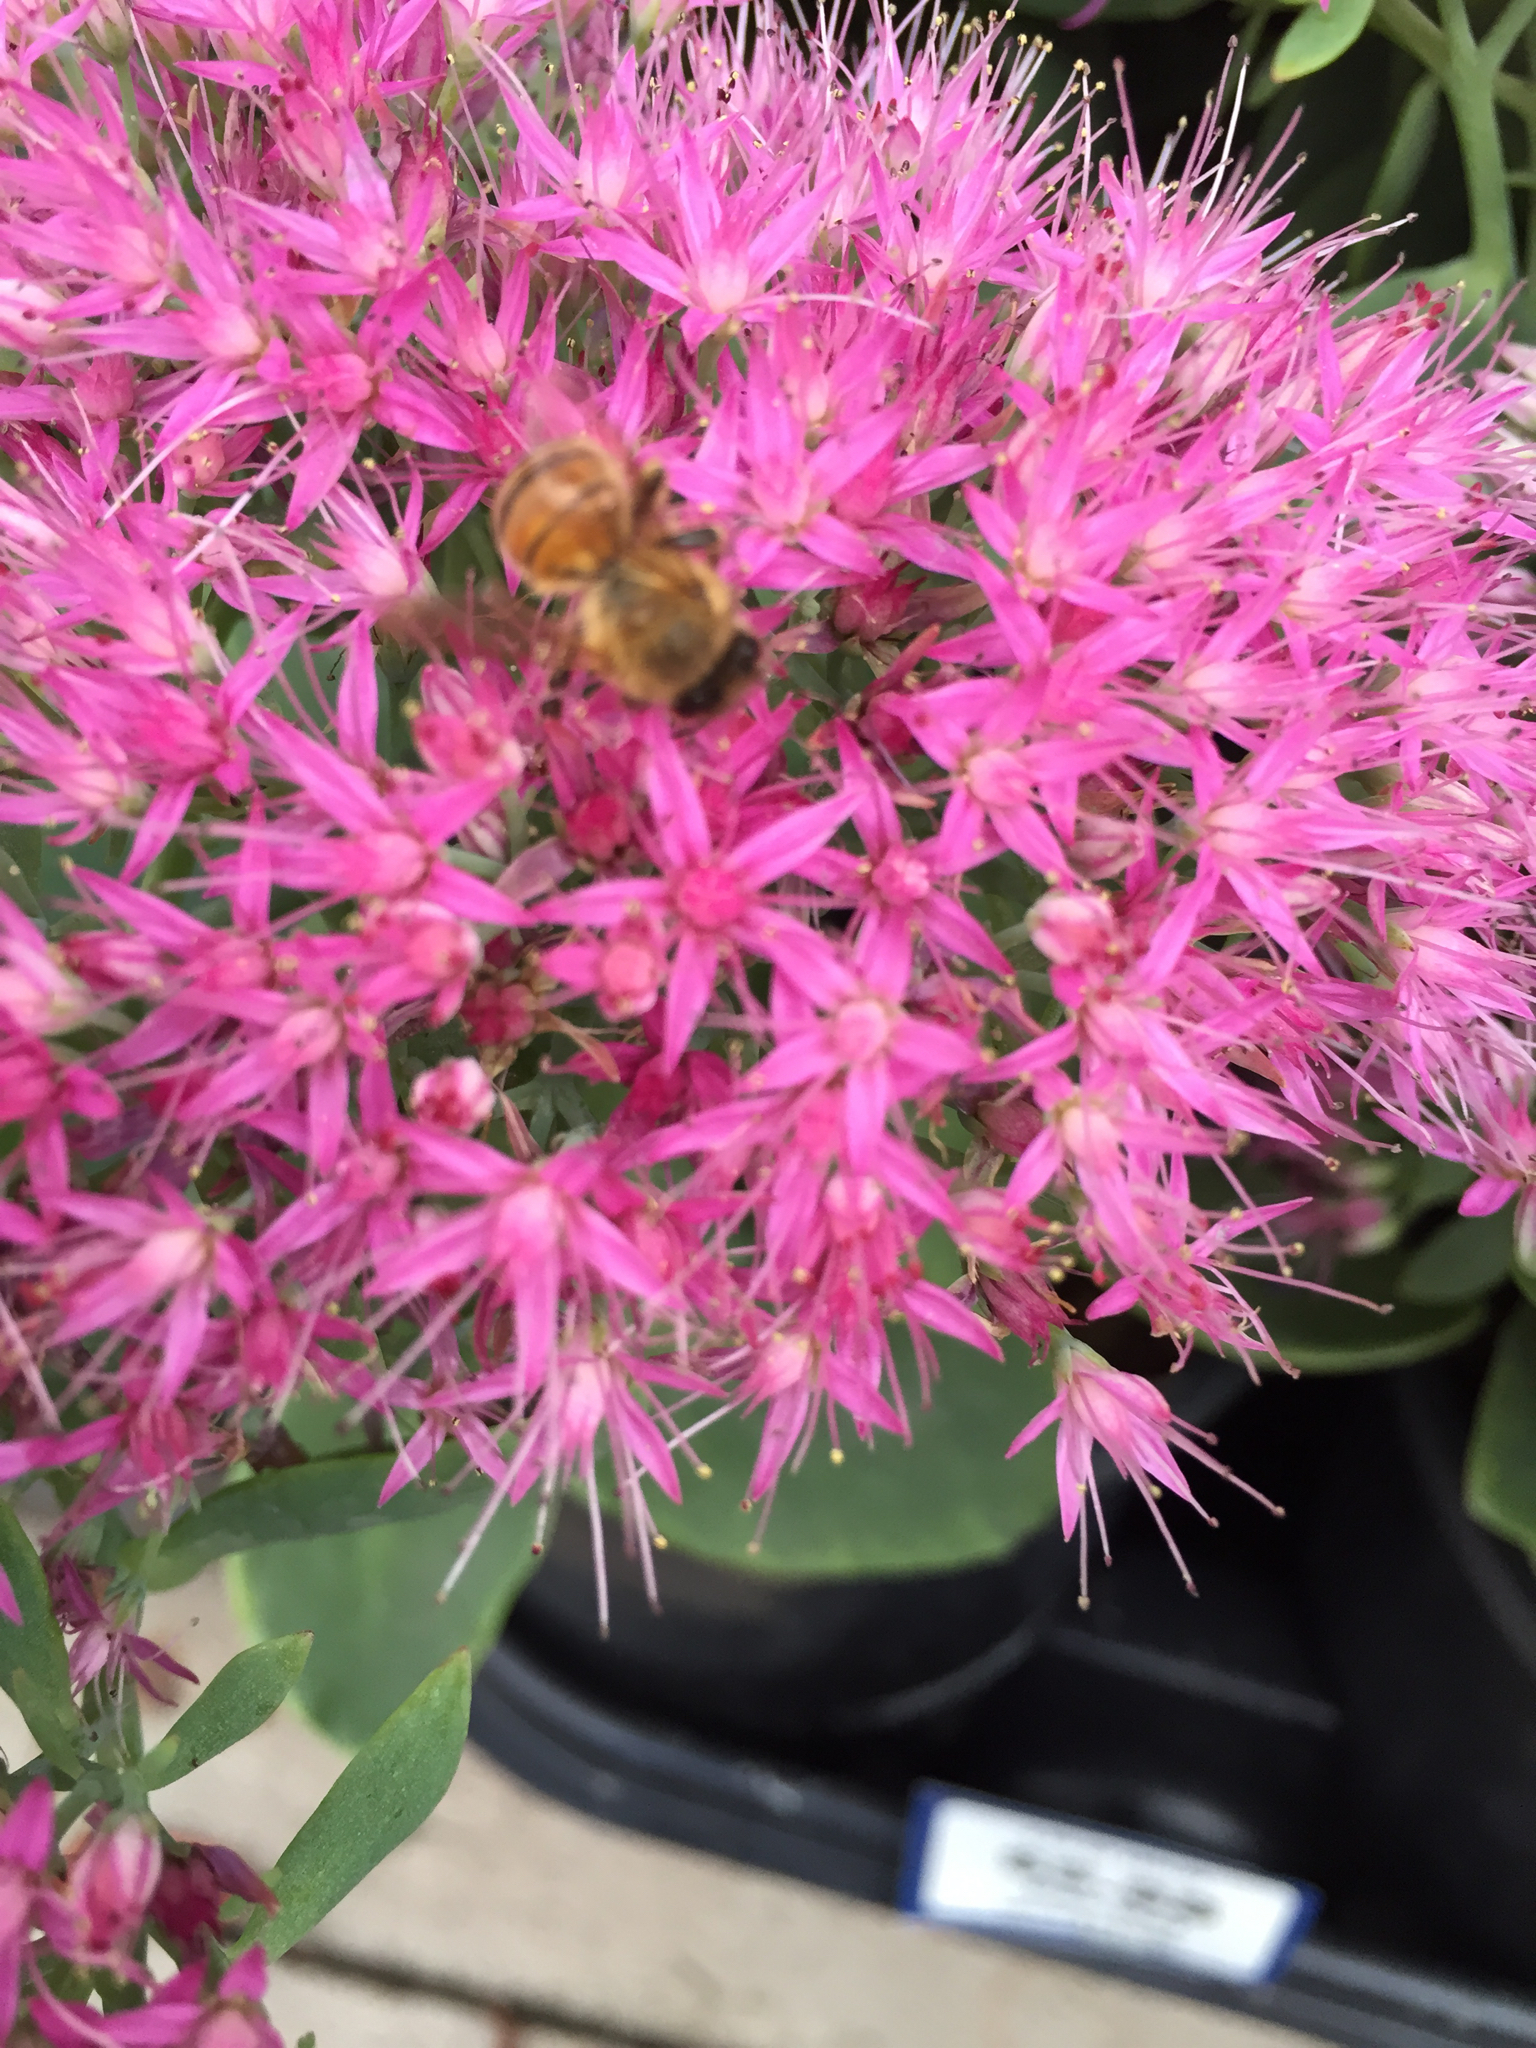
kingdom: Animalia
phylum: Arthropoda
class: Insecta
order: Hymenoptera
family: Apidae
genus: Apis
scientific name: Apis mellifera
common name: Honey bee
